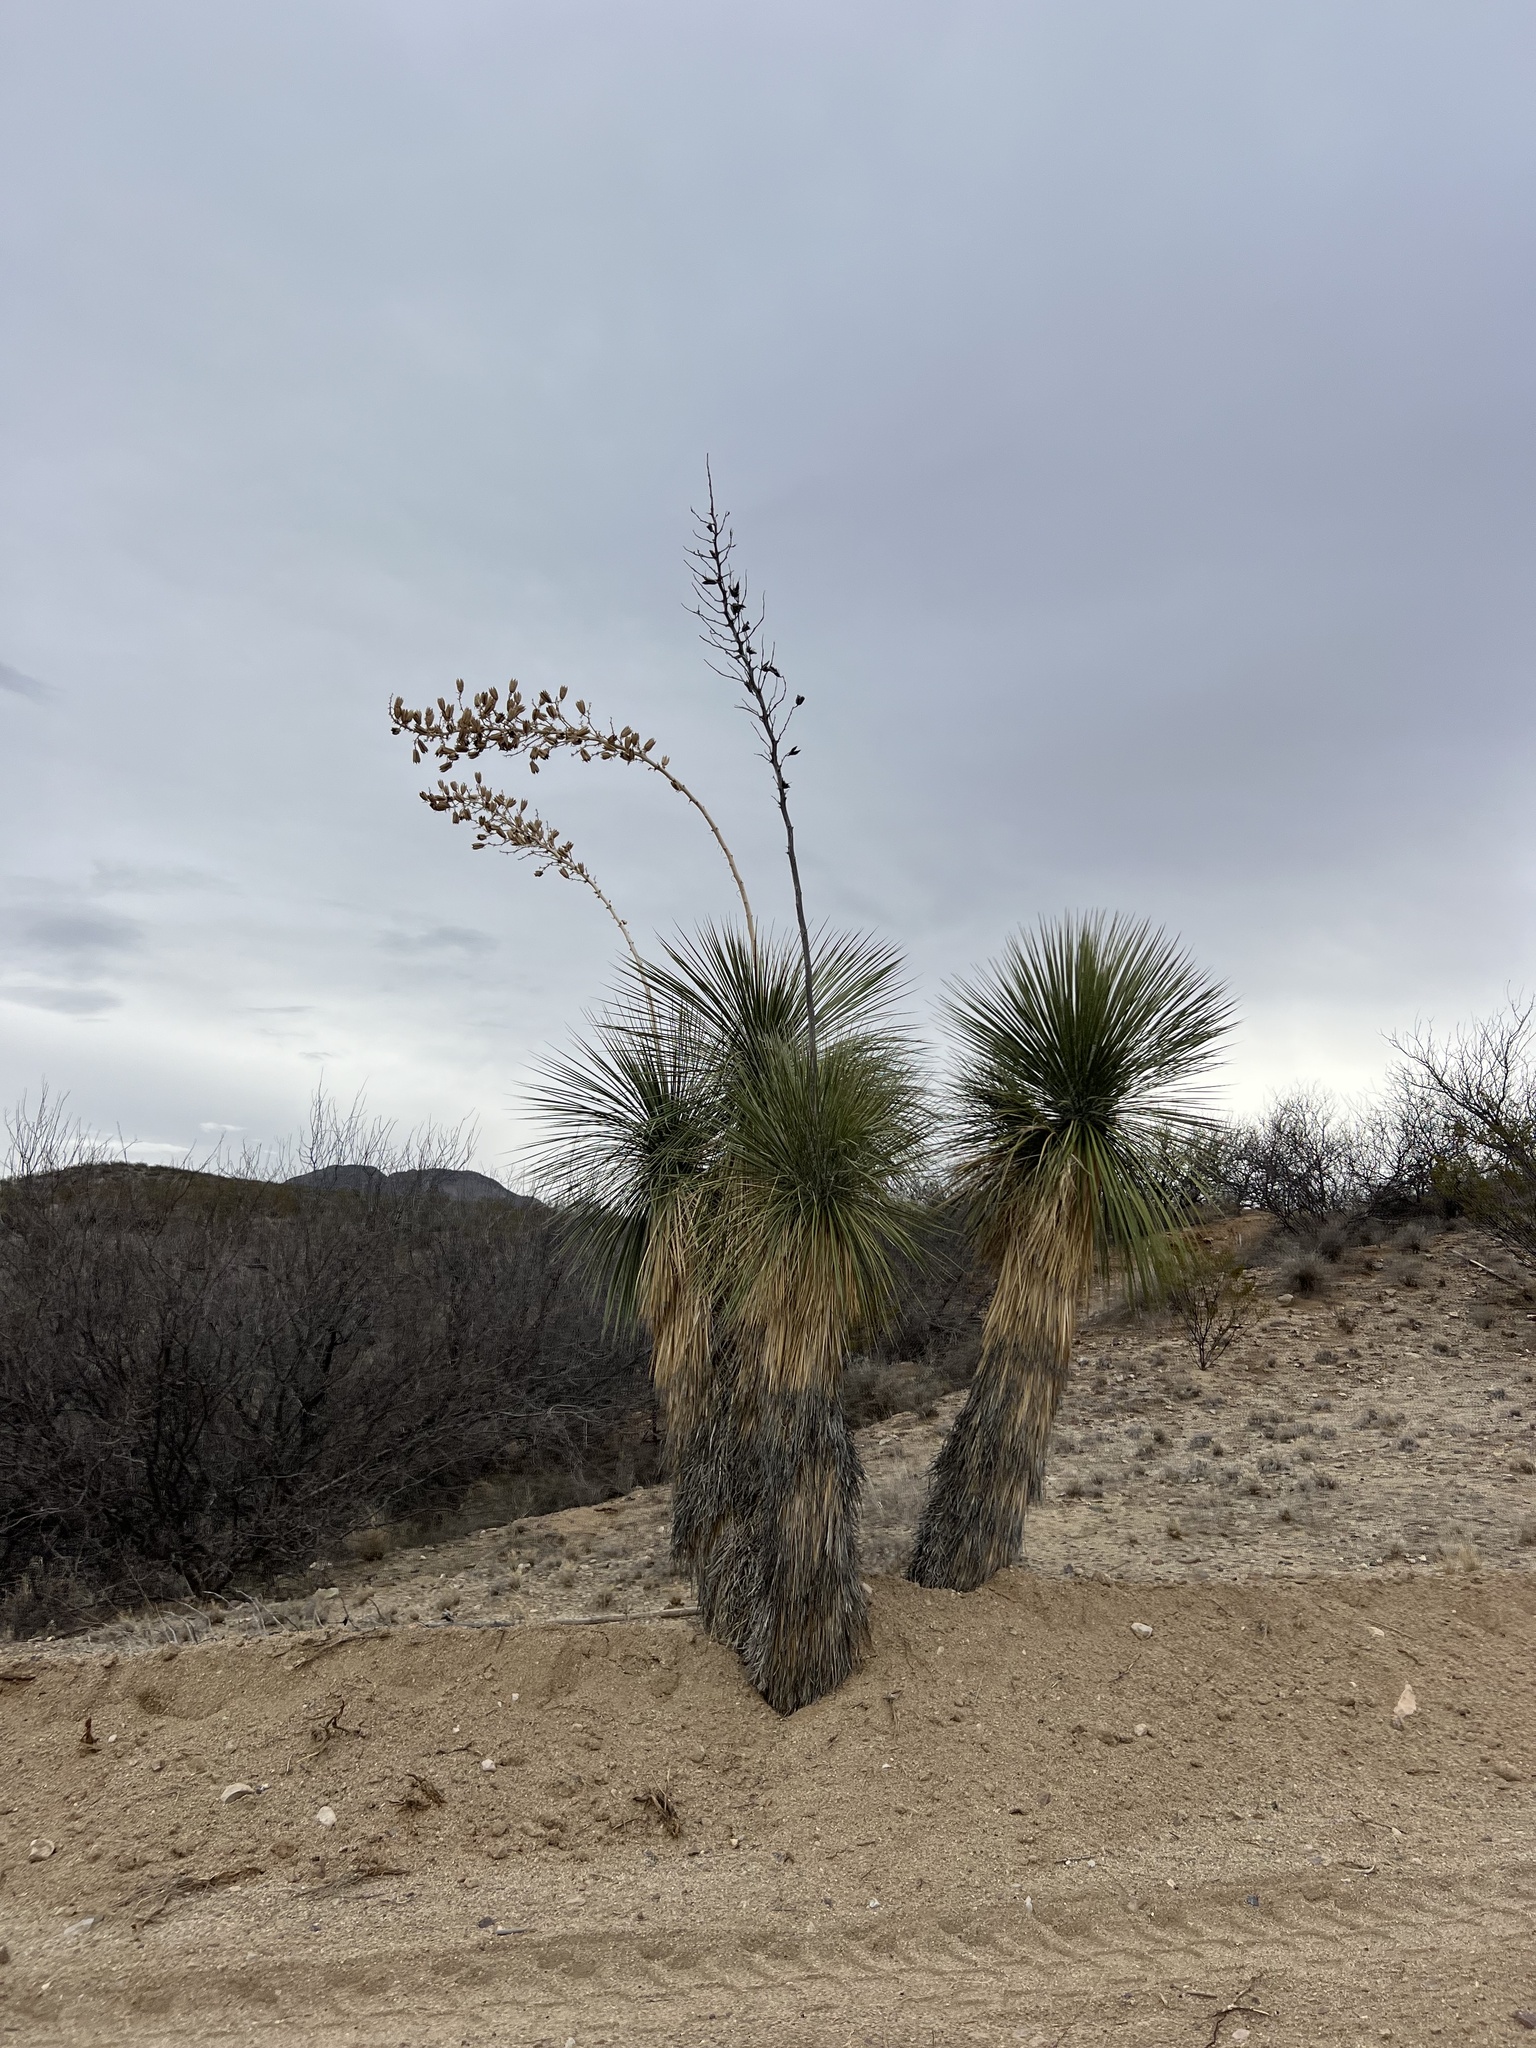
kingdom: Plantae
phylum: Tracheophyta
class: Liliopsida
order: Asparagales
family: Asparagaceae
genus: Yucca
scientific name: Yucca elata
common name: Palmella
